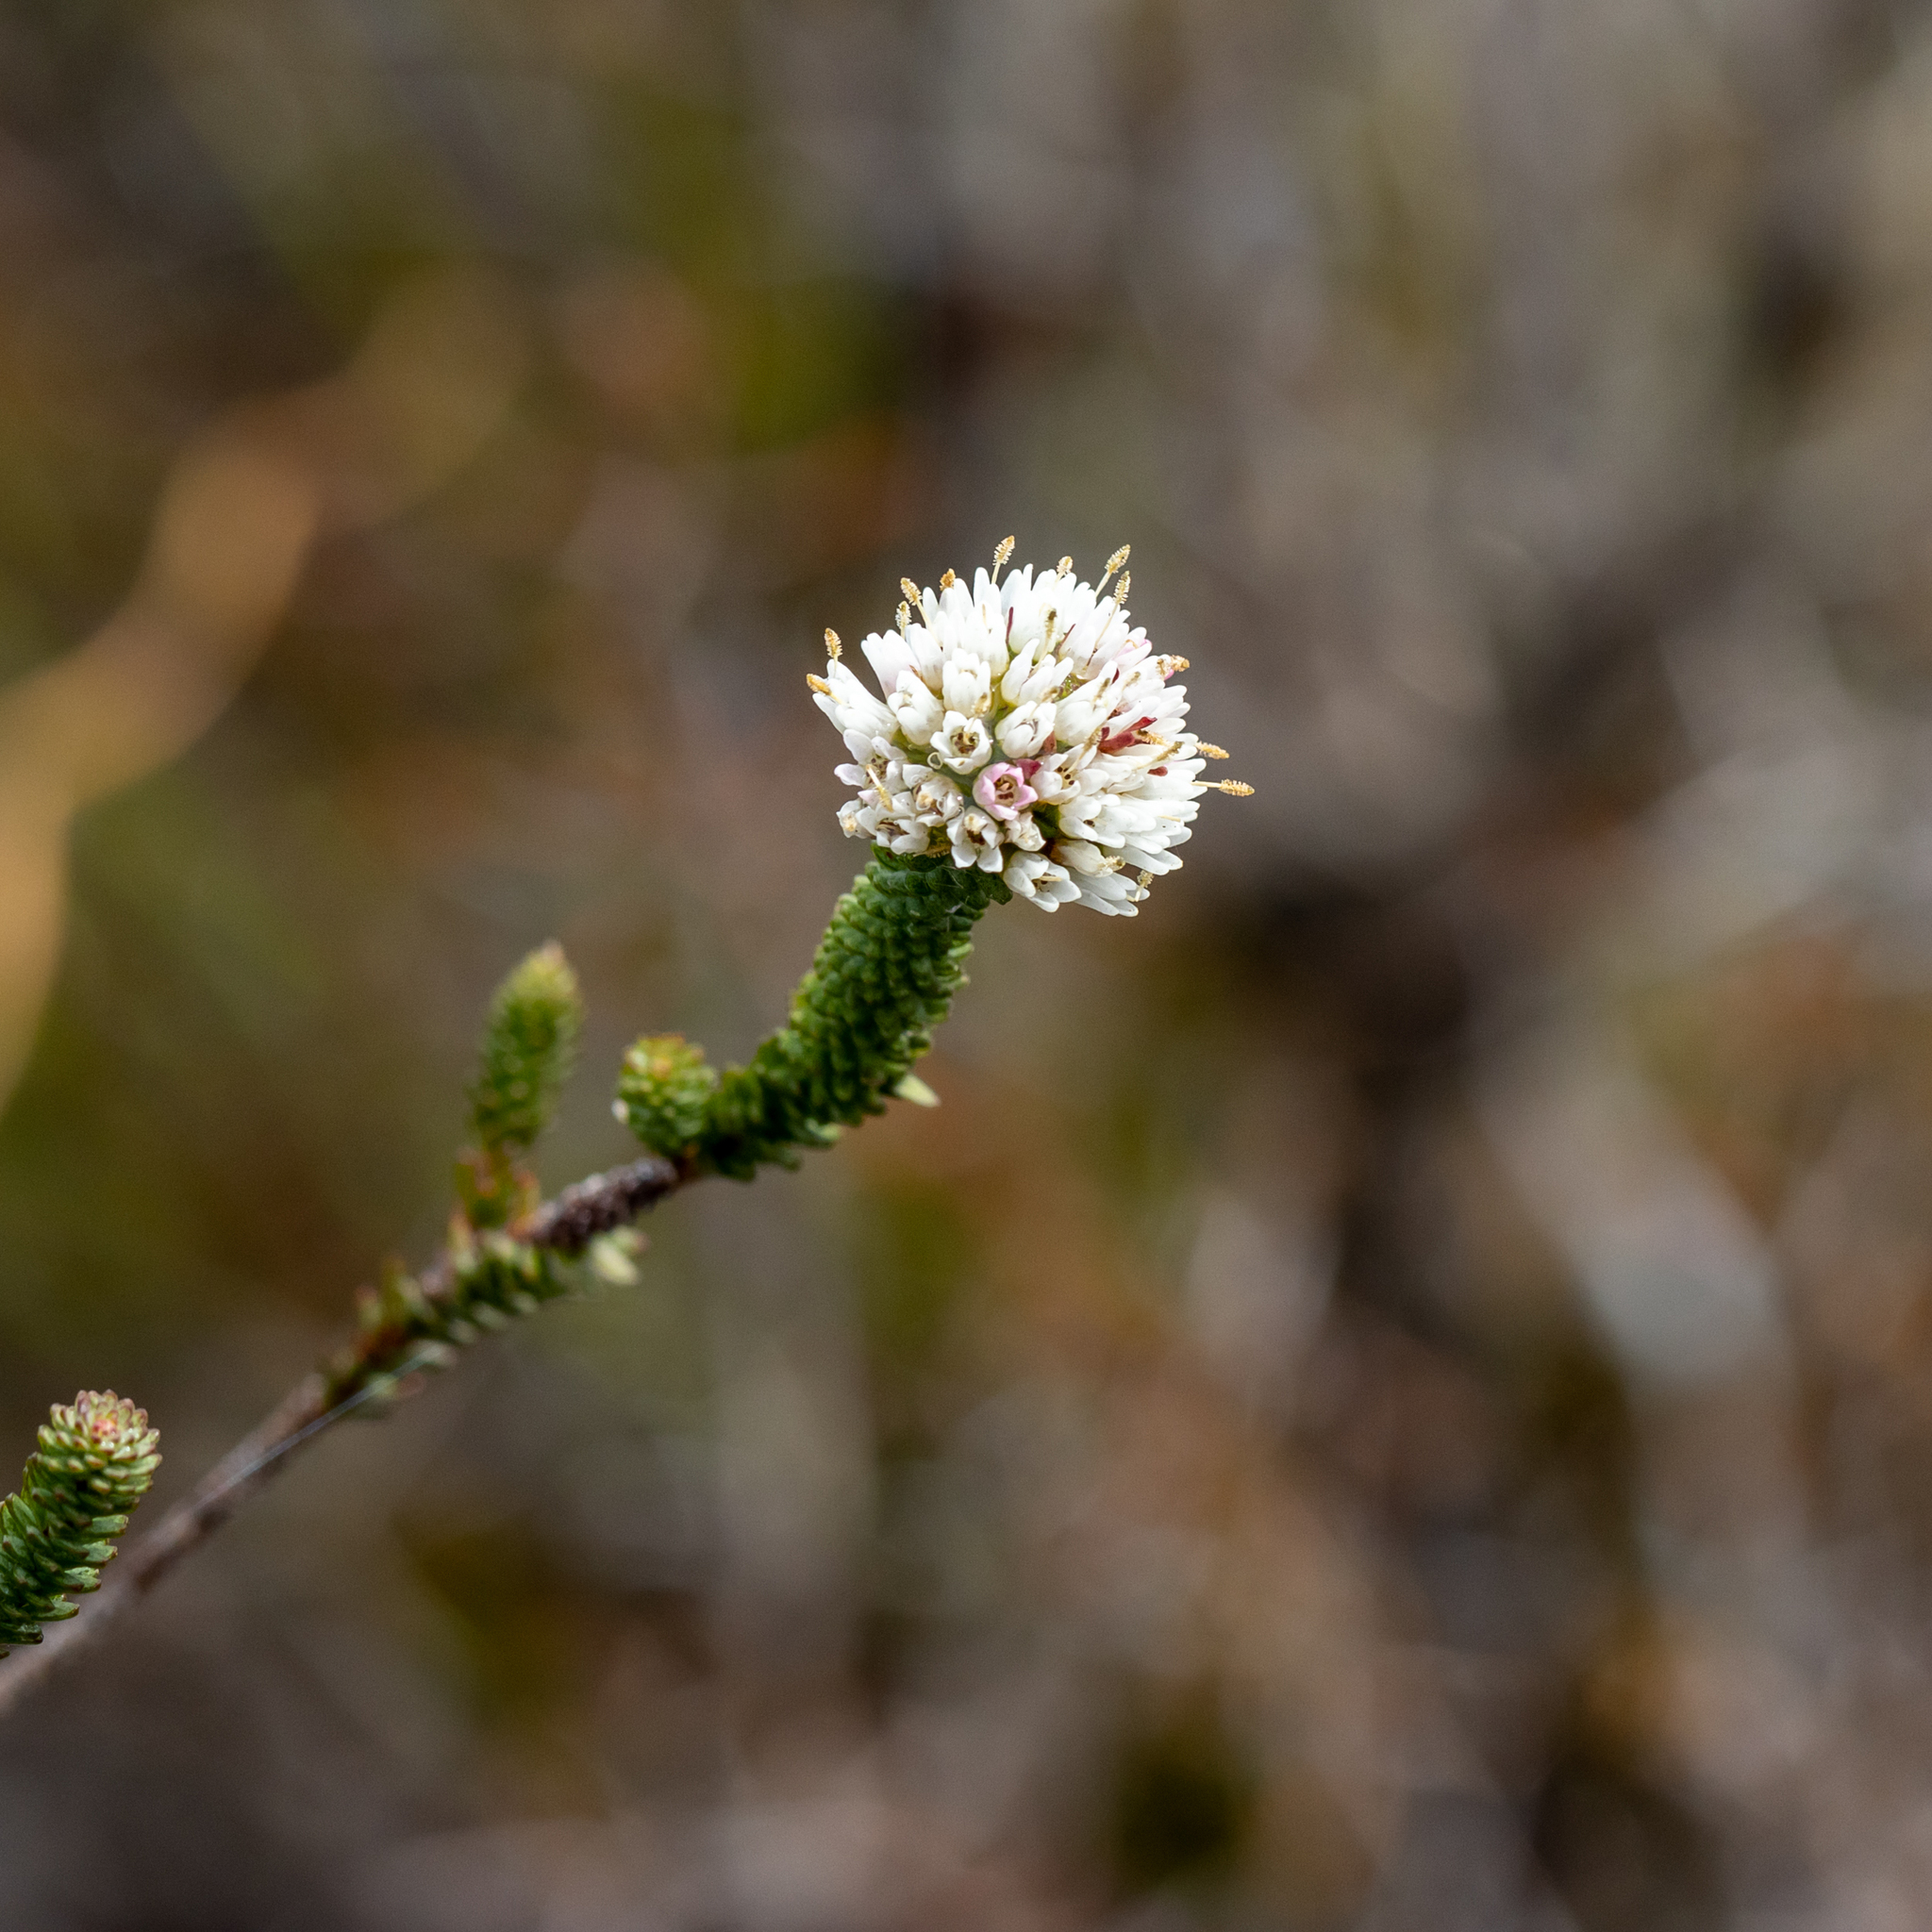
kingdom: Plantae
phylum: Tracheophyta
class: Magnoliopsida
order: Myrtales
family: Myrtaceae
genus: Darwinia
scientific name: Darwinia vestita
